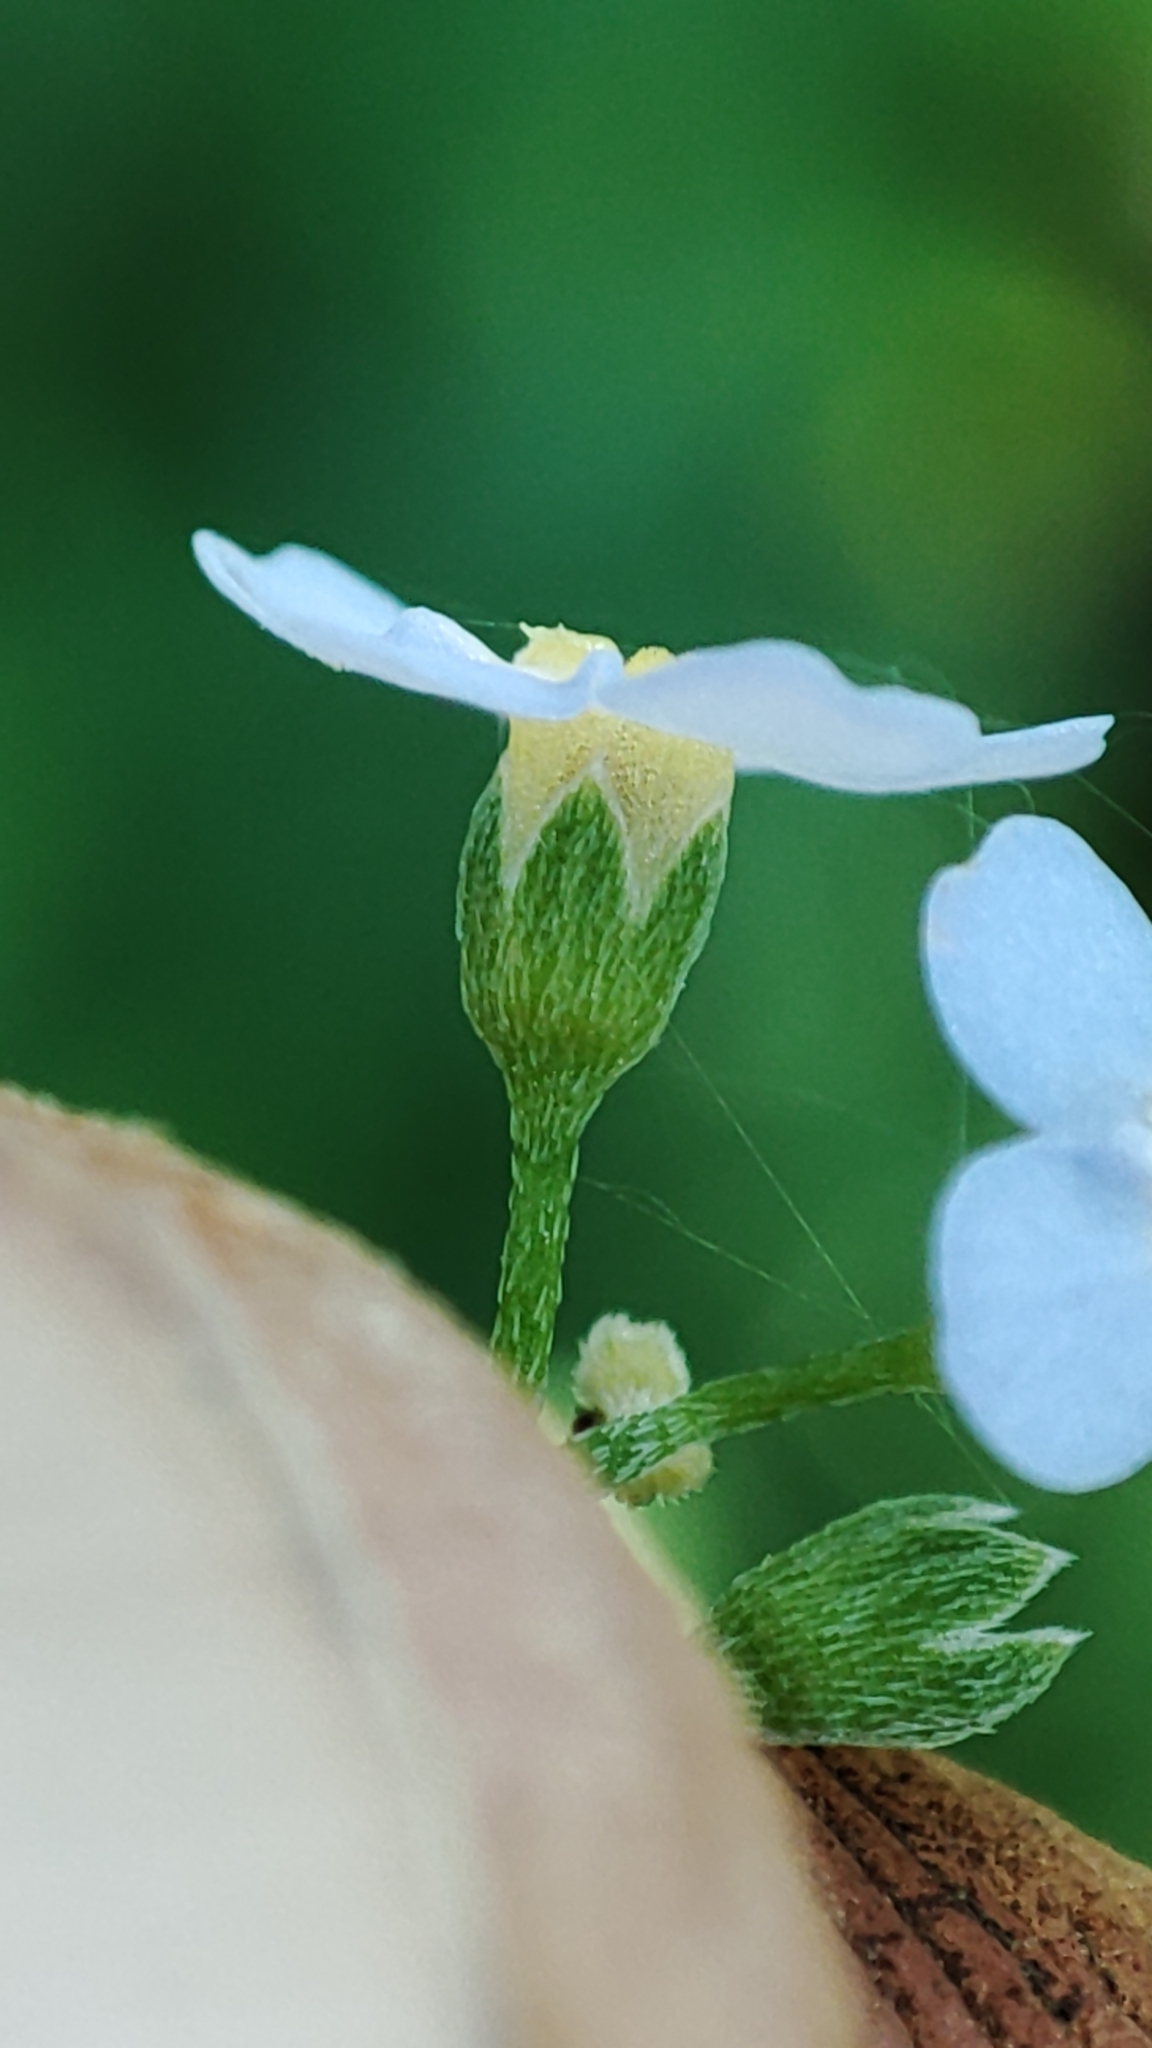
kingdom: Plantae
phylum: Tracheophyta
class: Magnoliopsida
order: Boraginales
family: Boraginaceae
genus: Myosotis
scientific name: Myosotis scorpioides
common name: Water forget-me-not
